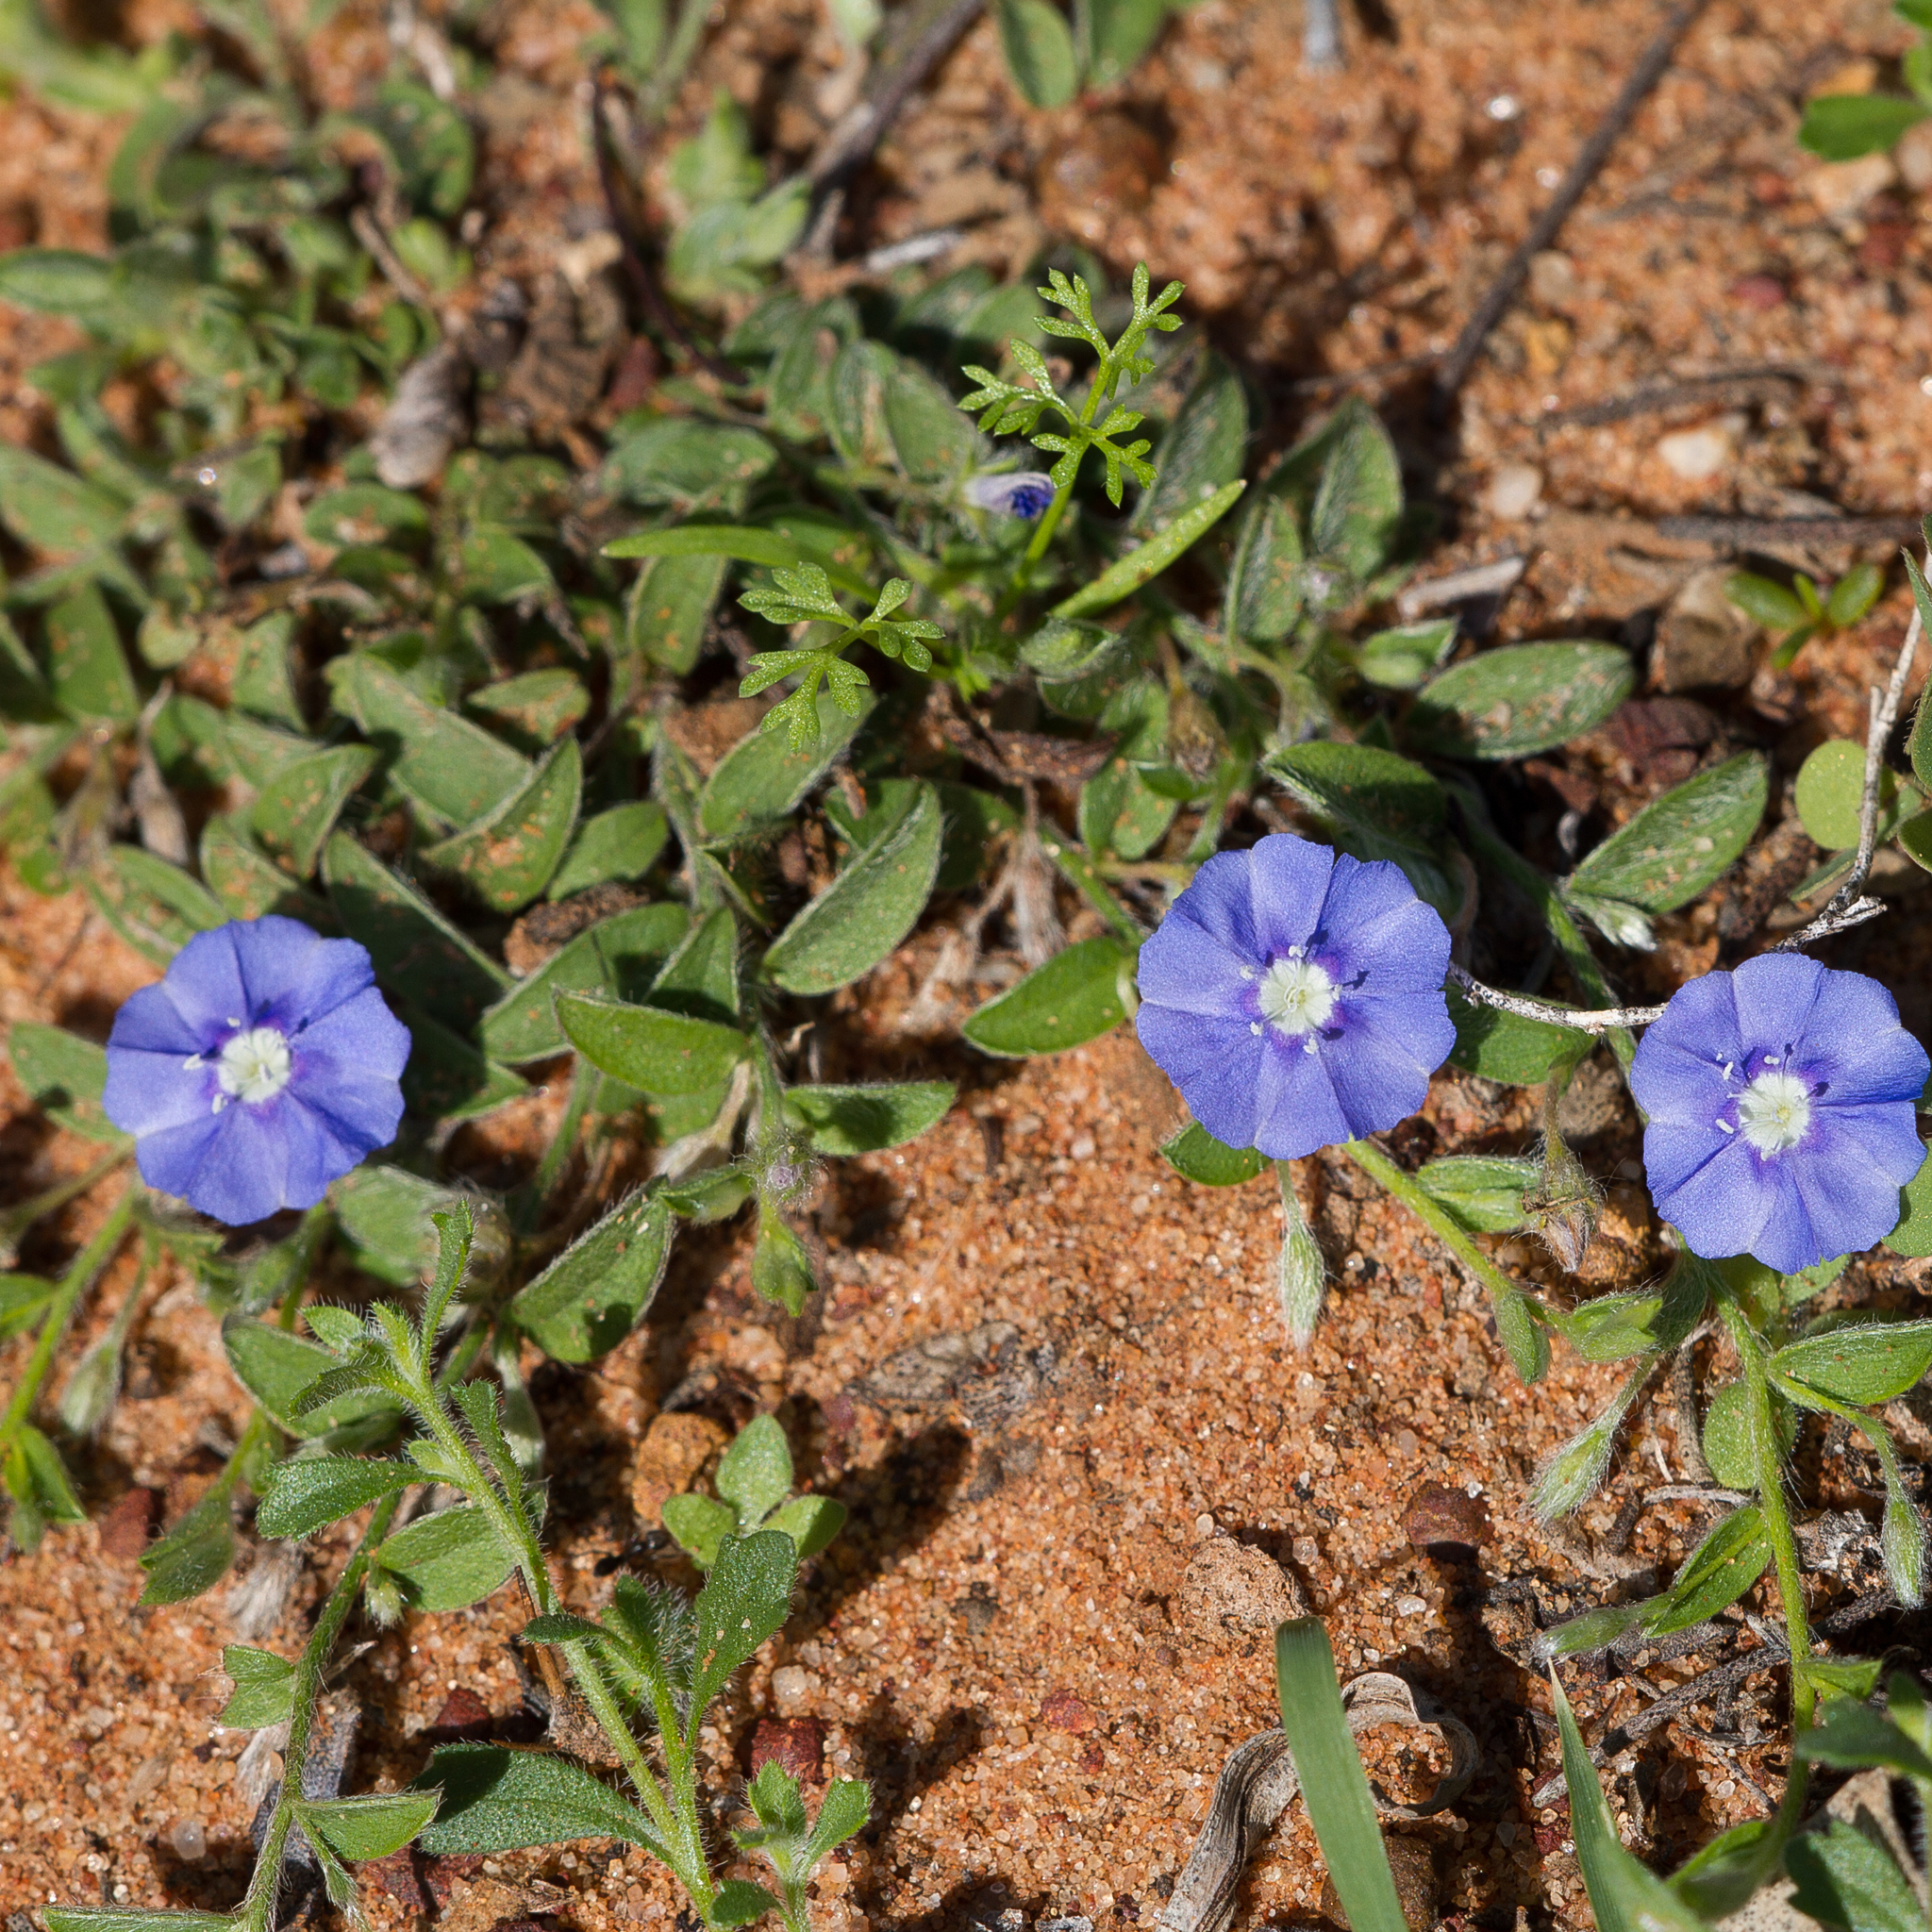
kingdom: Plantae
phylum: Tracheophyta
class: Magnoliopsida
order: Solanales
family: Convolvulaceae
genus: Evolvulus
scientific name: Evolvulus alsinoides
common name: Slender dwarf morning-glory
